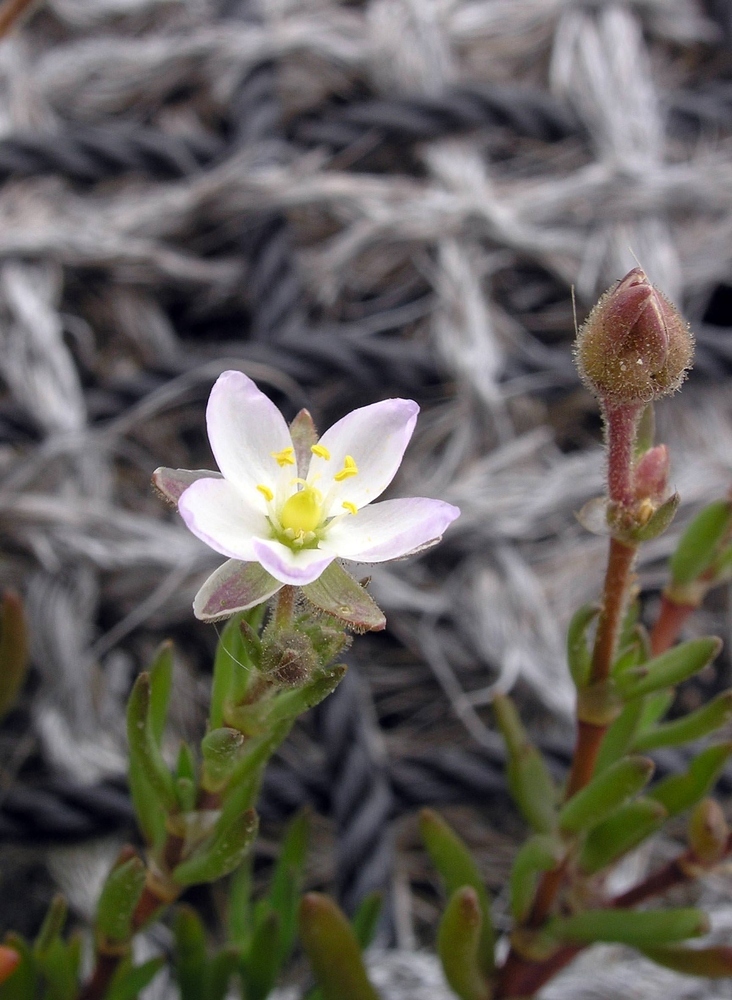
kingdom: Plantae
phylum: Tracheophyta
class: Magnoliopsida
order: Caryophyllales
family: Caryophyllaceae
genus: Spergularia
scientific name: Spergularia media
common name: Greater sea-spurrey
